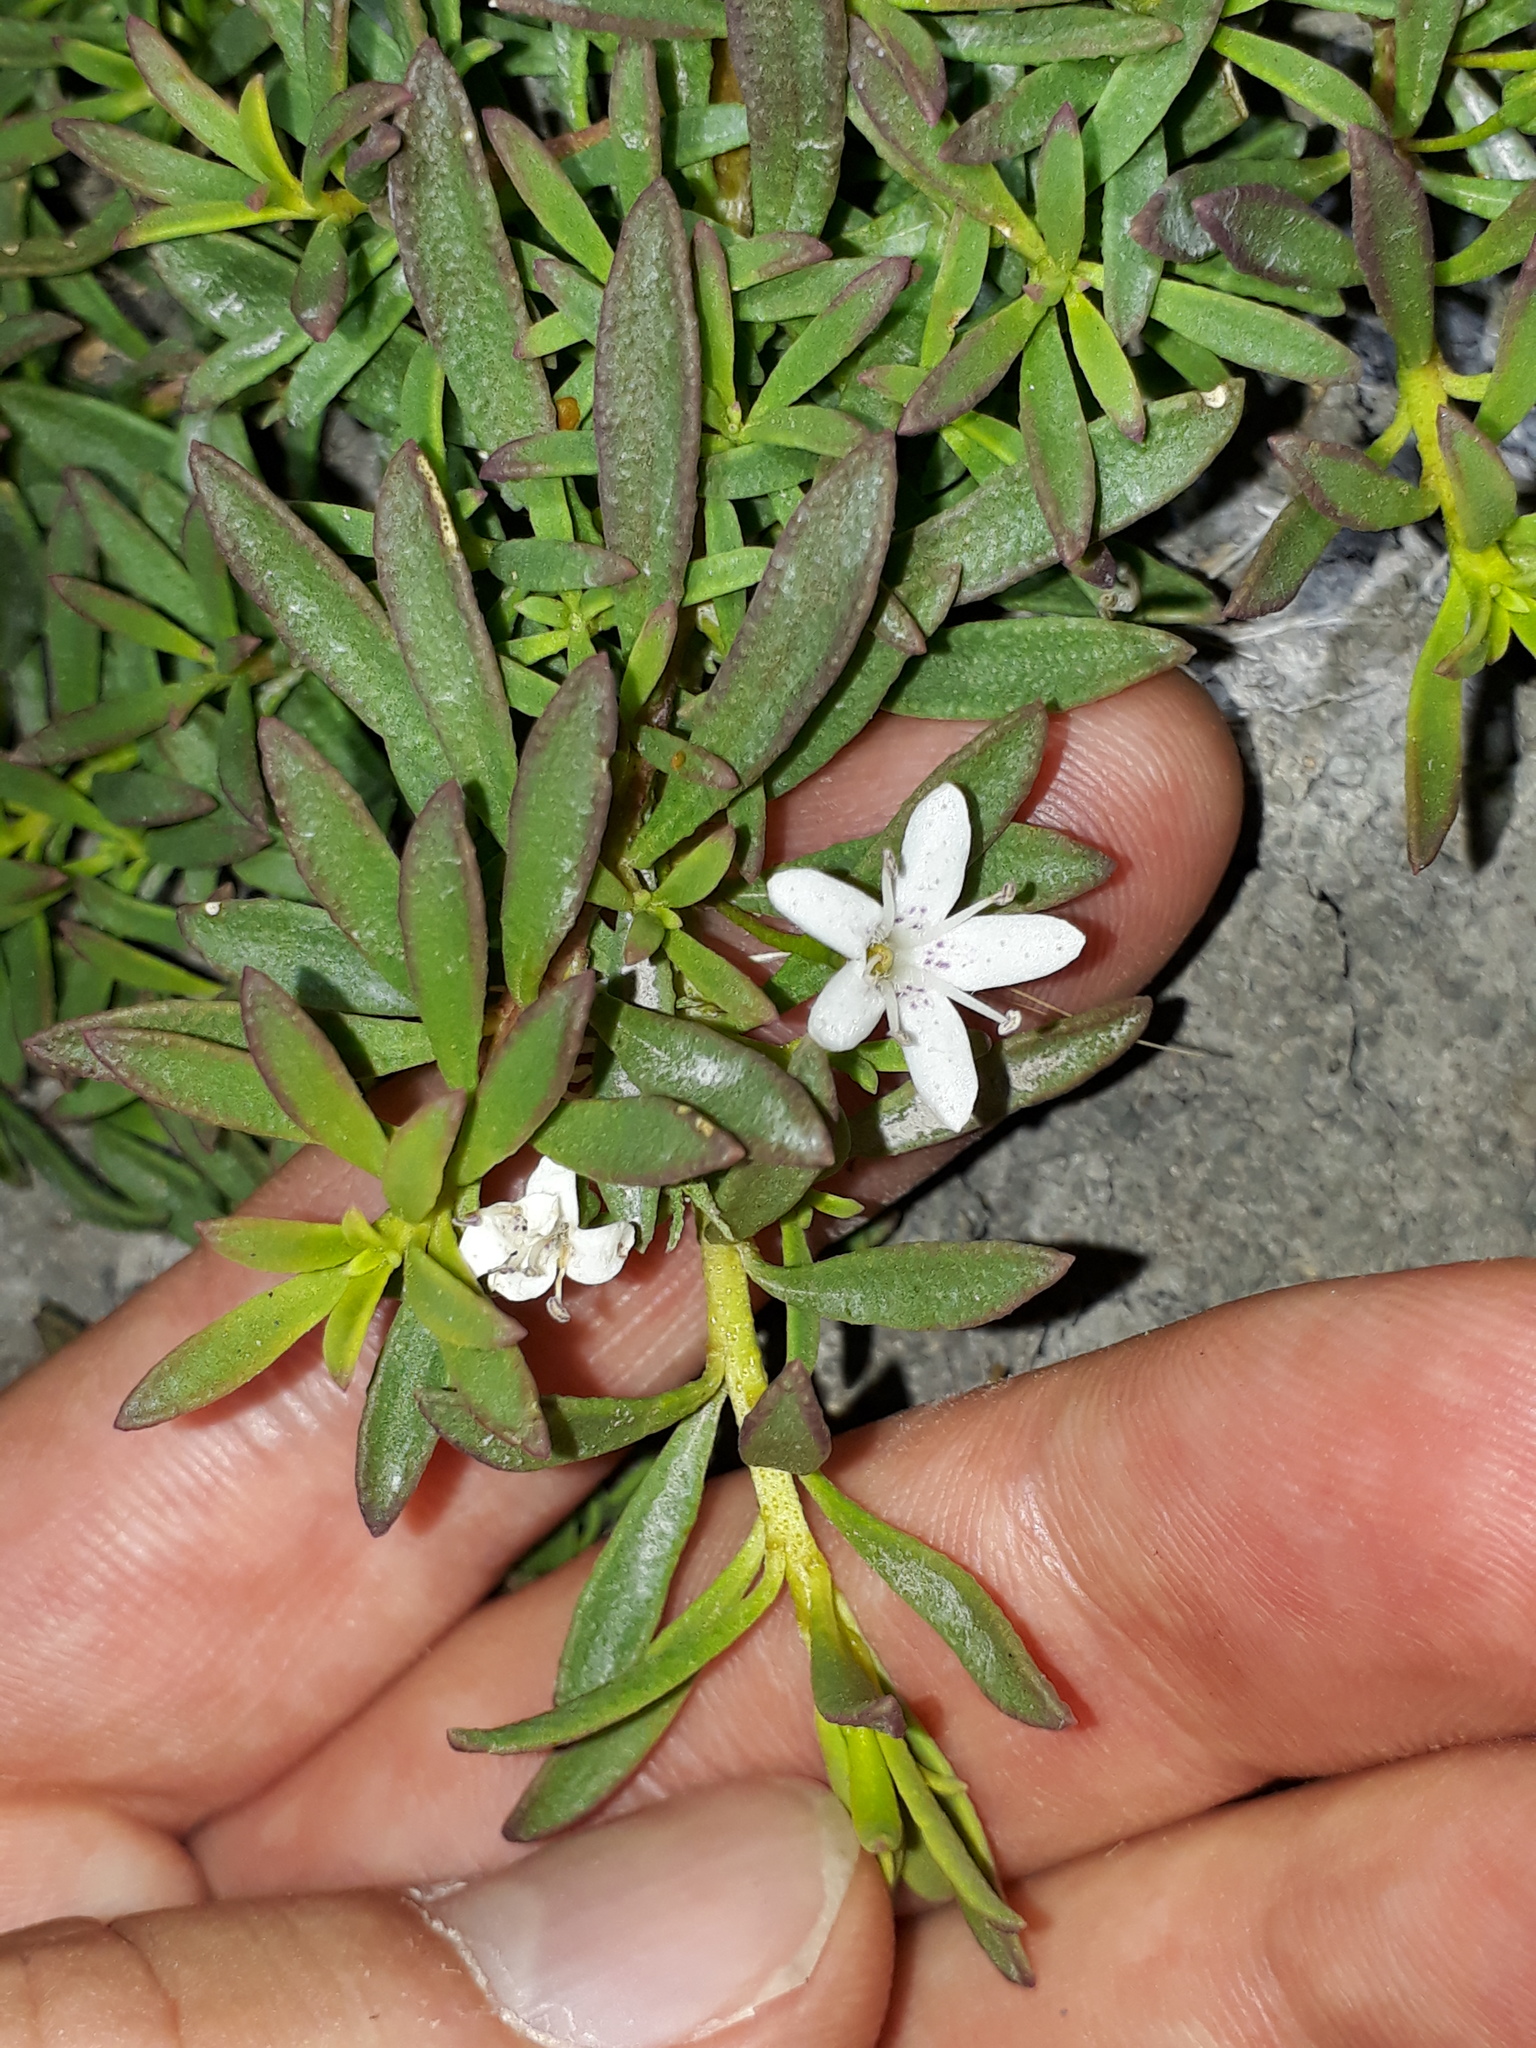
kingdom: Plantae
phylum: Tracheophyta
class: Magnoliopsida
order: Lamiales
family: Scrophulariaceae
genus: Myoporum
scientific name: Myoporum parvifolium
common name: Dwarf native-myrtle
